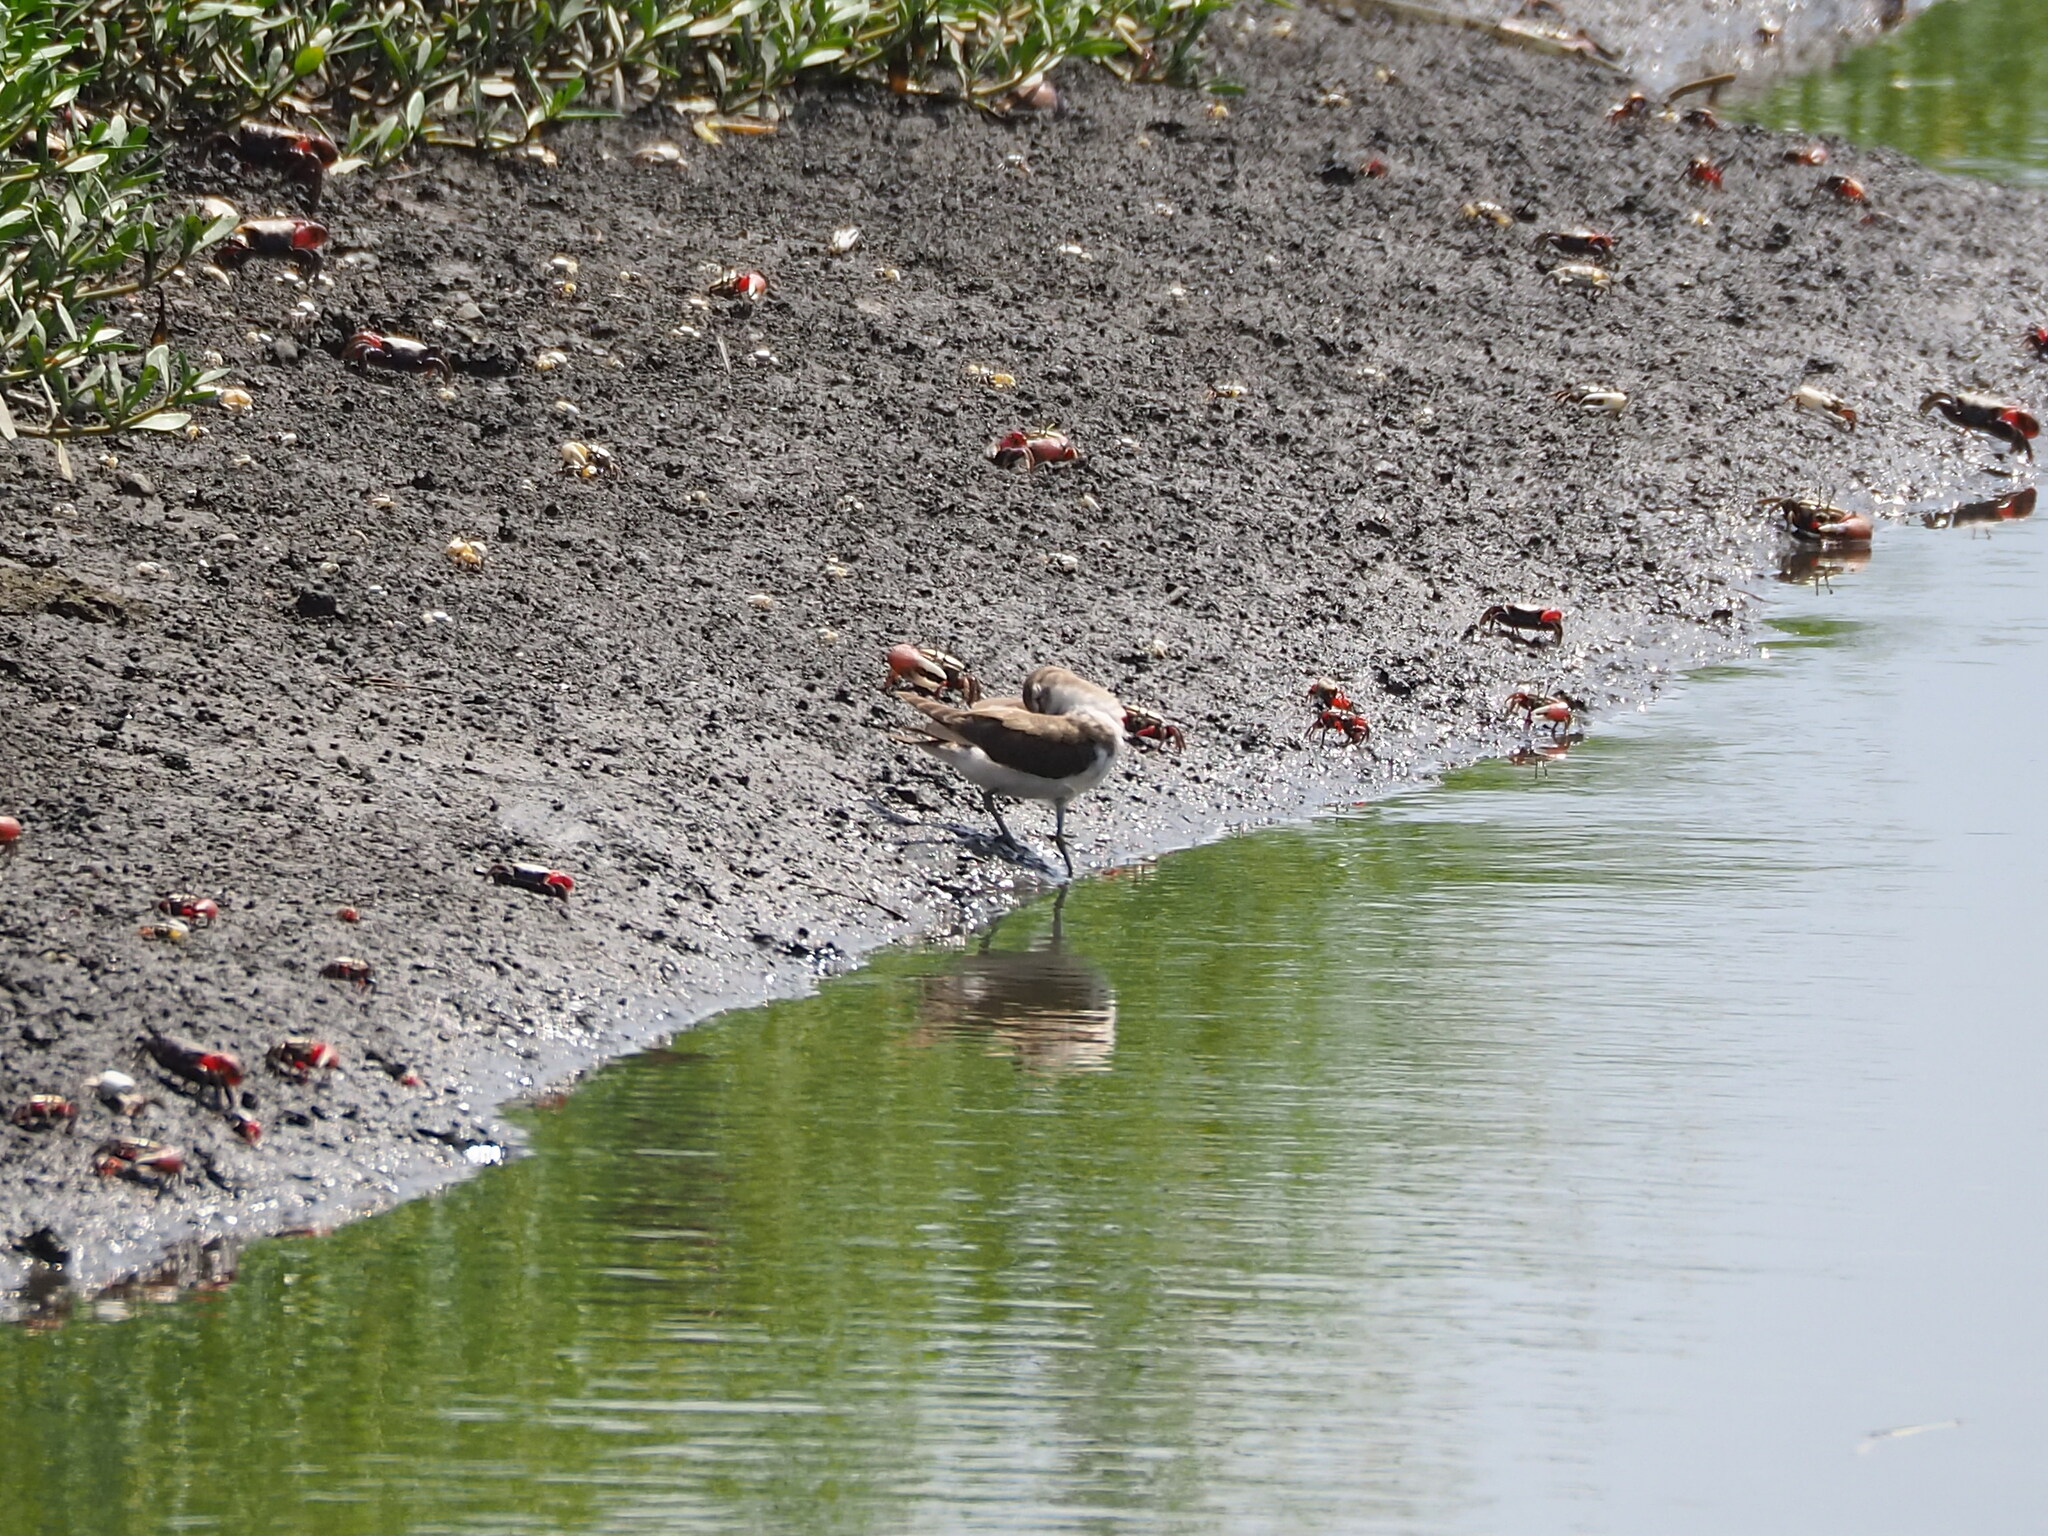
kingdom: Animalia
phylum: Chordata
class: Aves
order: Charadriiformes
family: Scolopacidae
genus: Actitis
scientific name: Actitis hypoleucos
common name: Common sandpiper
